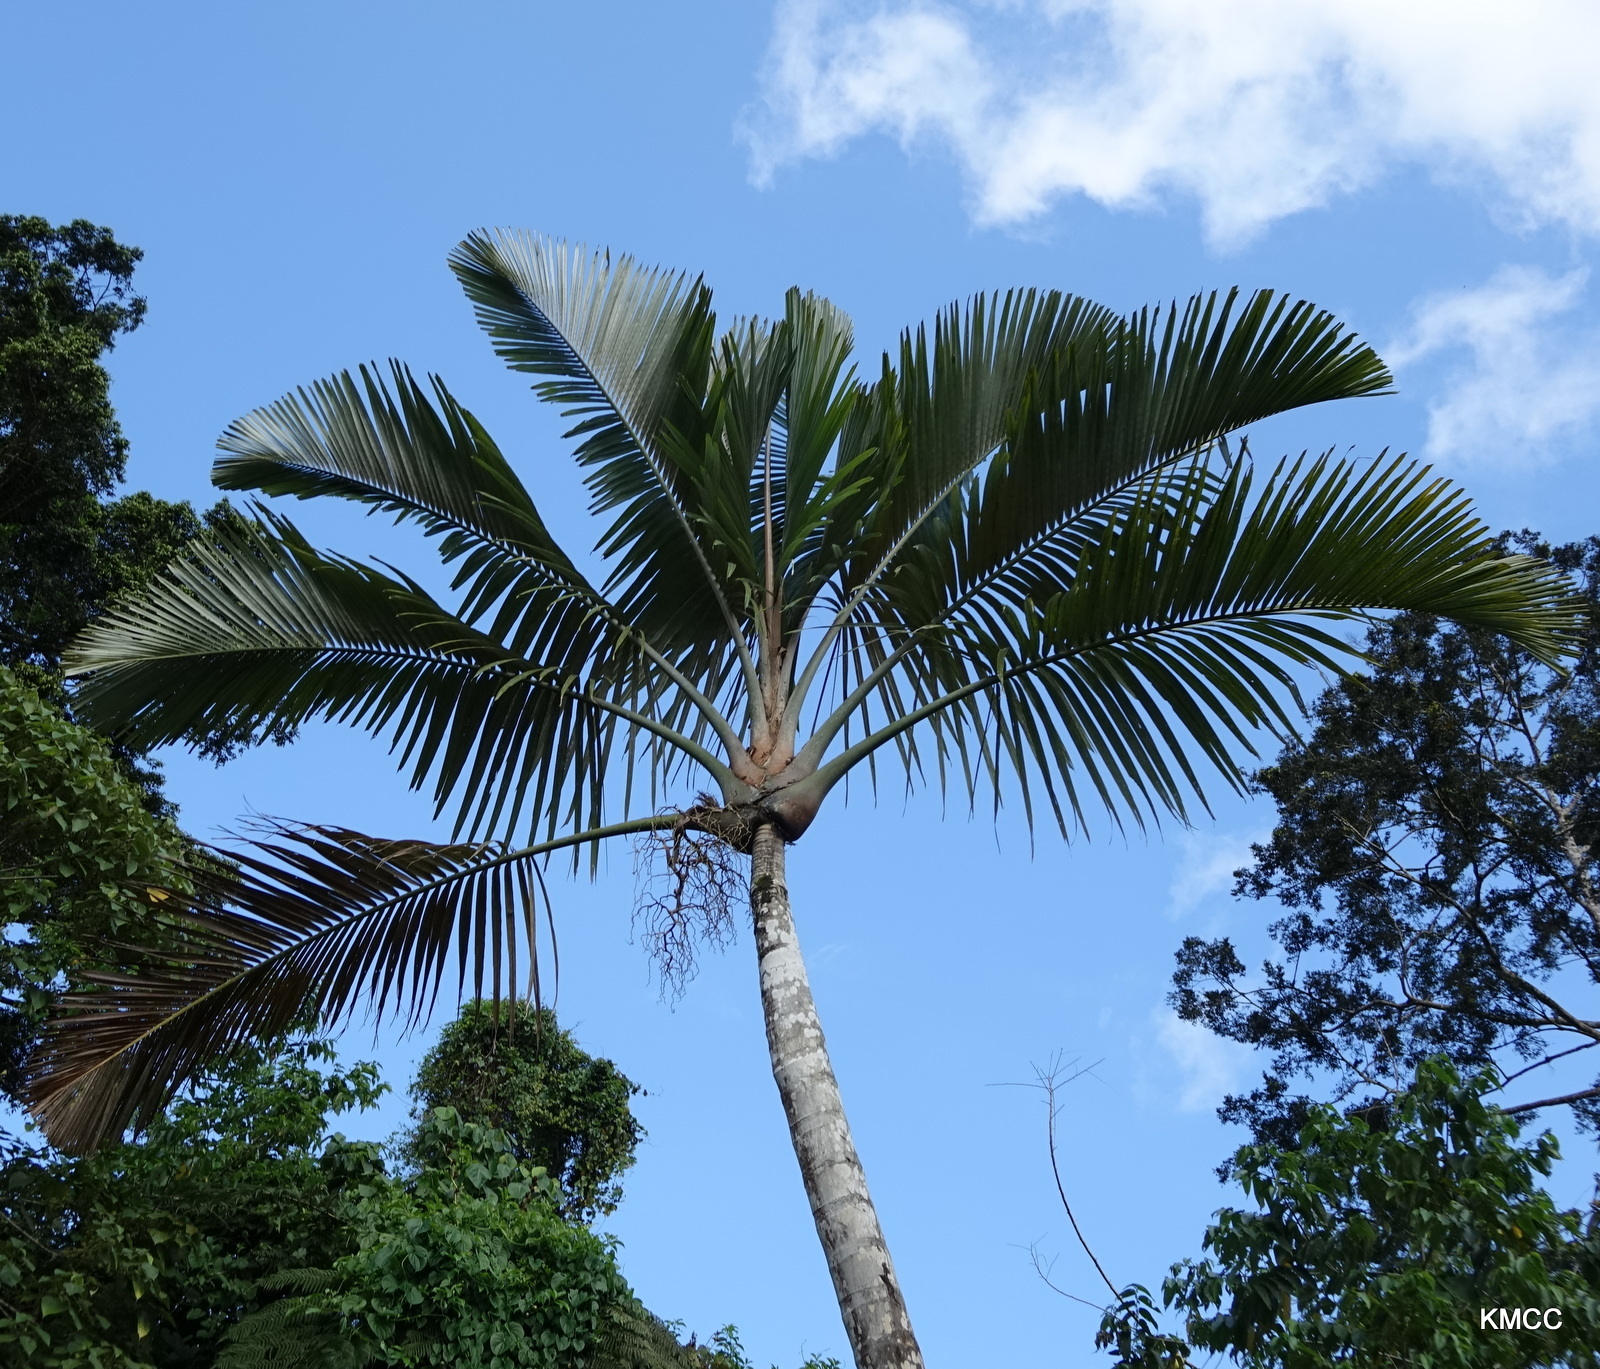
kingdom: Plantae
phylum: Tracheophyta
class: Liliopsida
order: Arecales
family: Arecaceae
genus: Orania
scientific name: Orania trispatha
